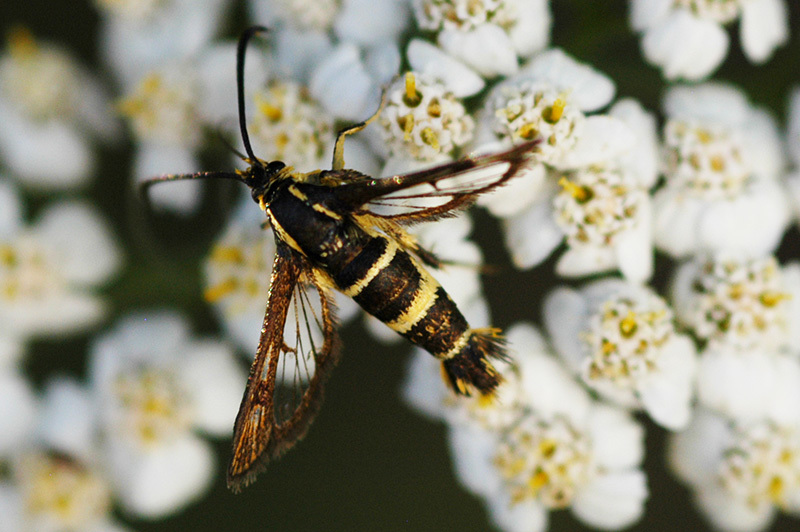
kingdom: Animalia
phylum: Arthropoda
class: Insecta
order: Lepidoptera
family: Sesiidae
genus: Synanthedon
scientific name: Synanthedon bibionipennis
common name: Strawberry crown moth
